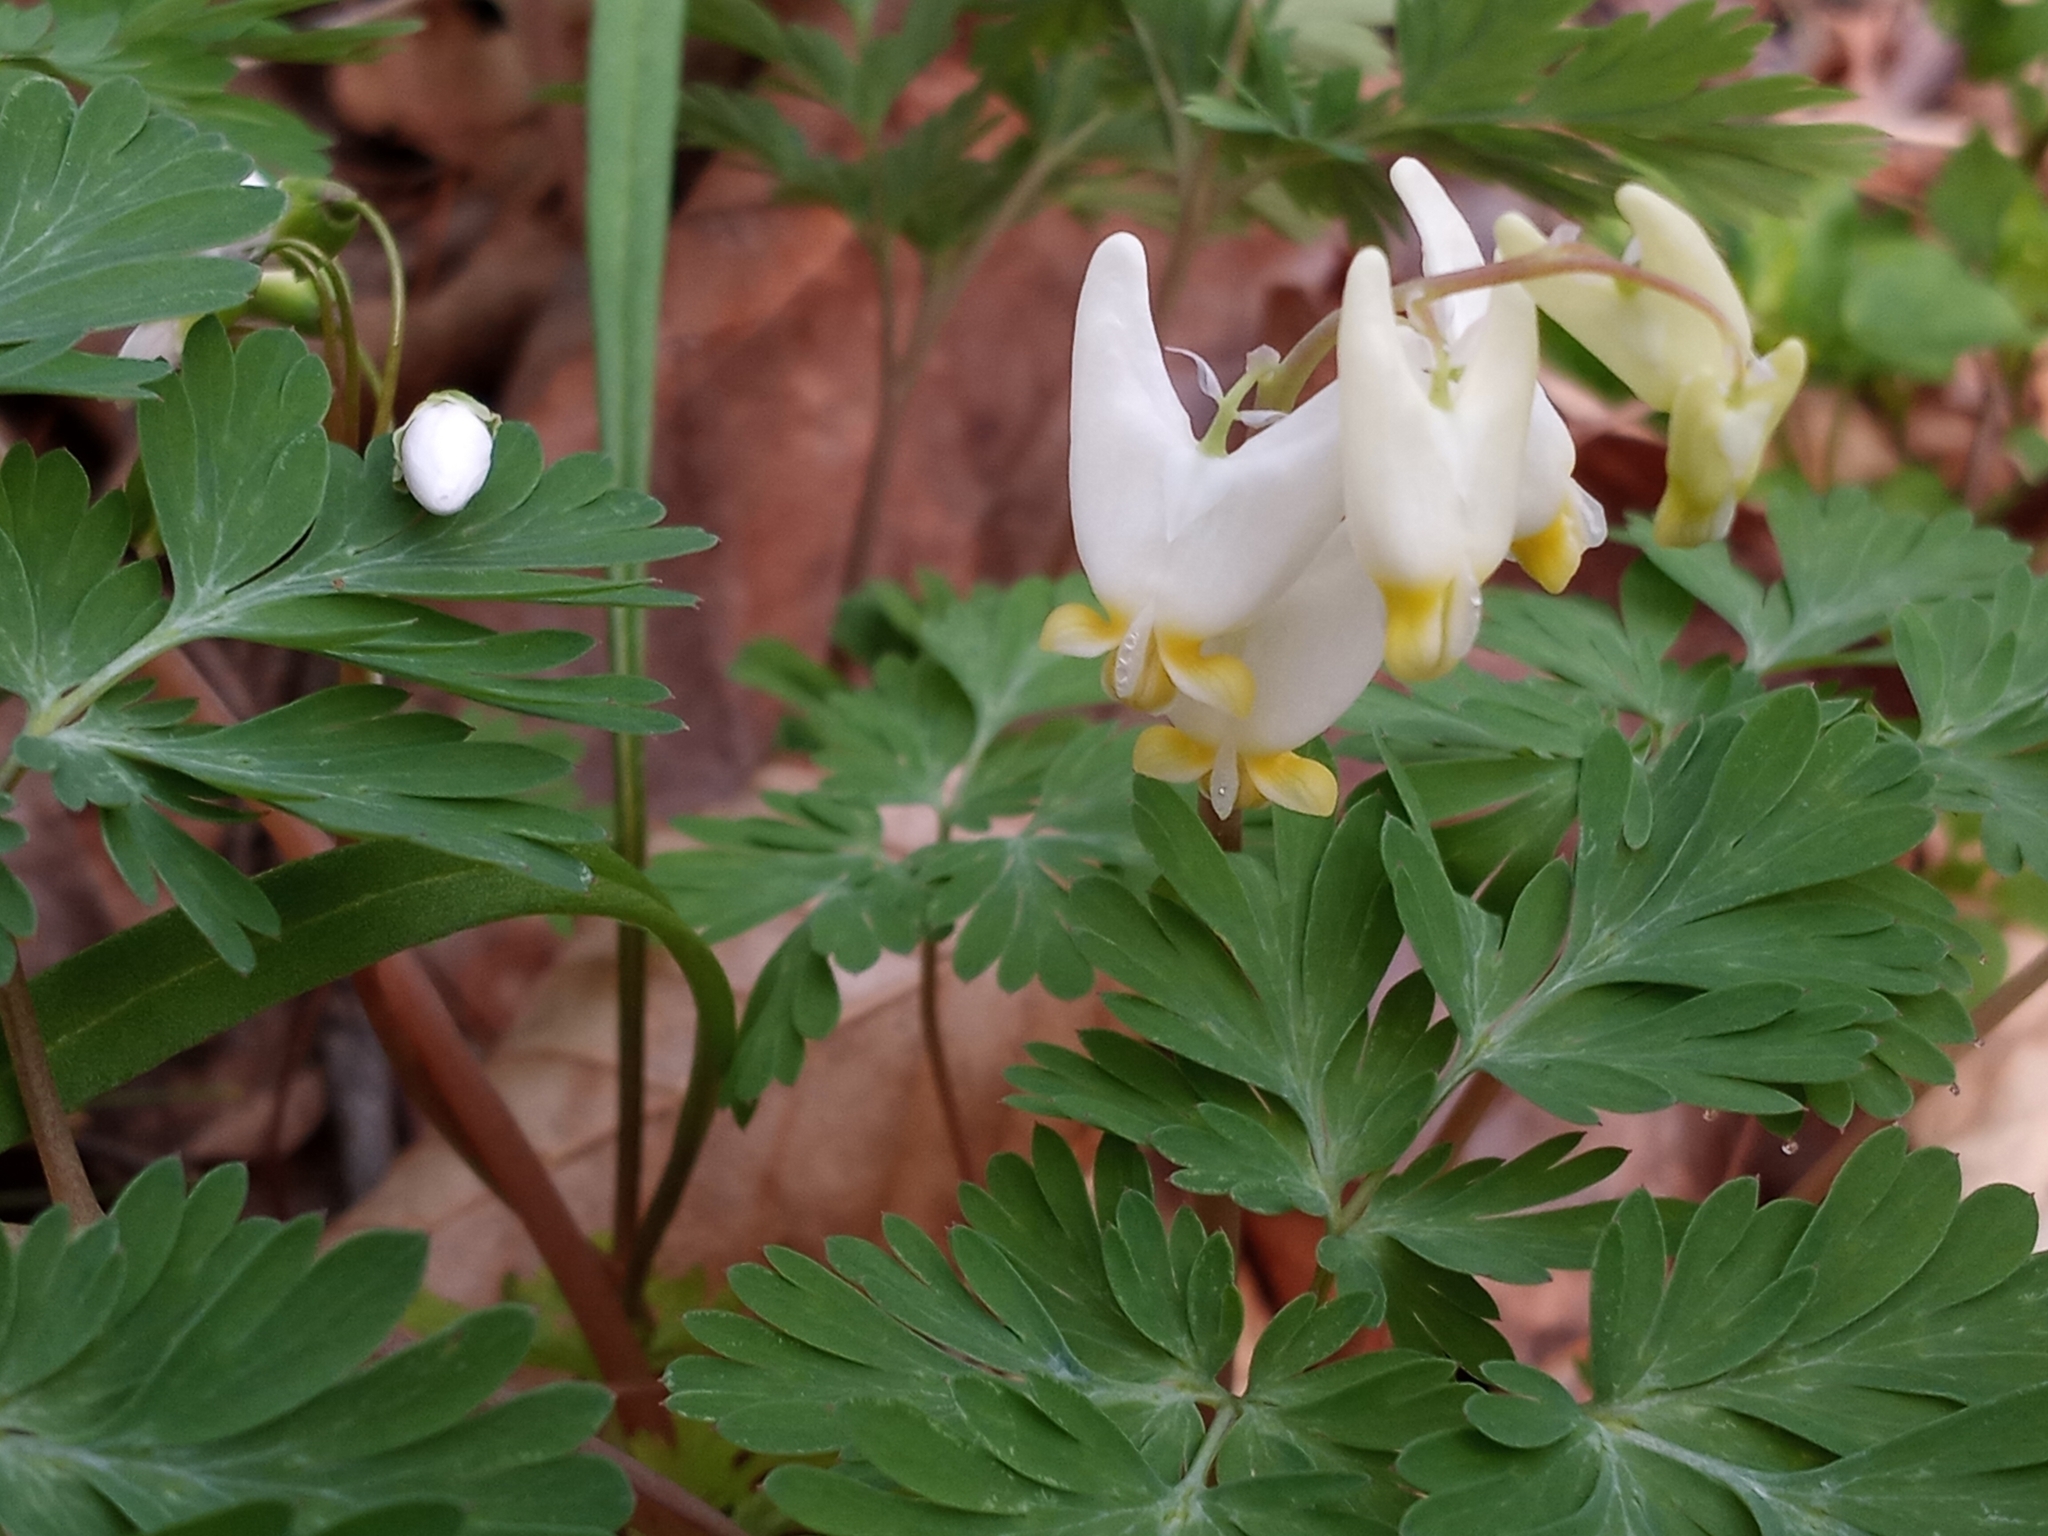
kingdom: Plantae
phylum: Tracheophyta
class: Magnoliopsida
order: Ranunculales
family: Papaveraceae
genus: Dicentra
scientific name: Dicentra cucullaria
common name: Dutchman's breeches
